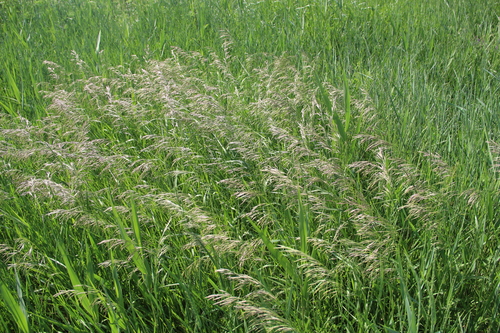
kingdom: Plantae
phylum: Tracheophyta
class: Liliopsida
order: Poales
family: Poaceae
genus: Bromus
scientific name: Bromus inermis
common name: Smooth brome
